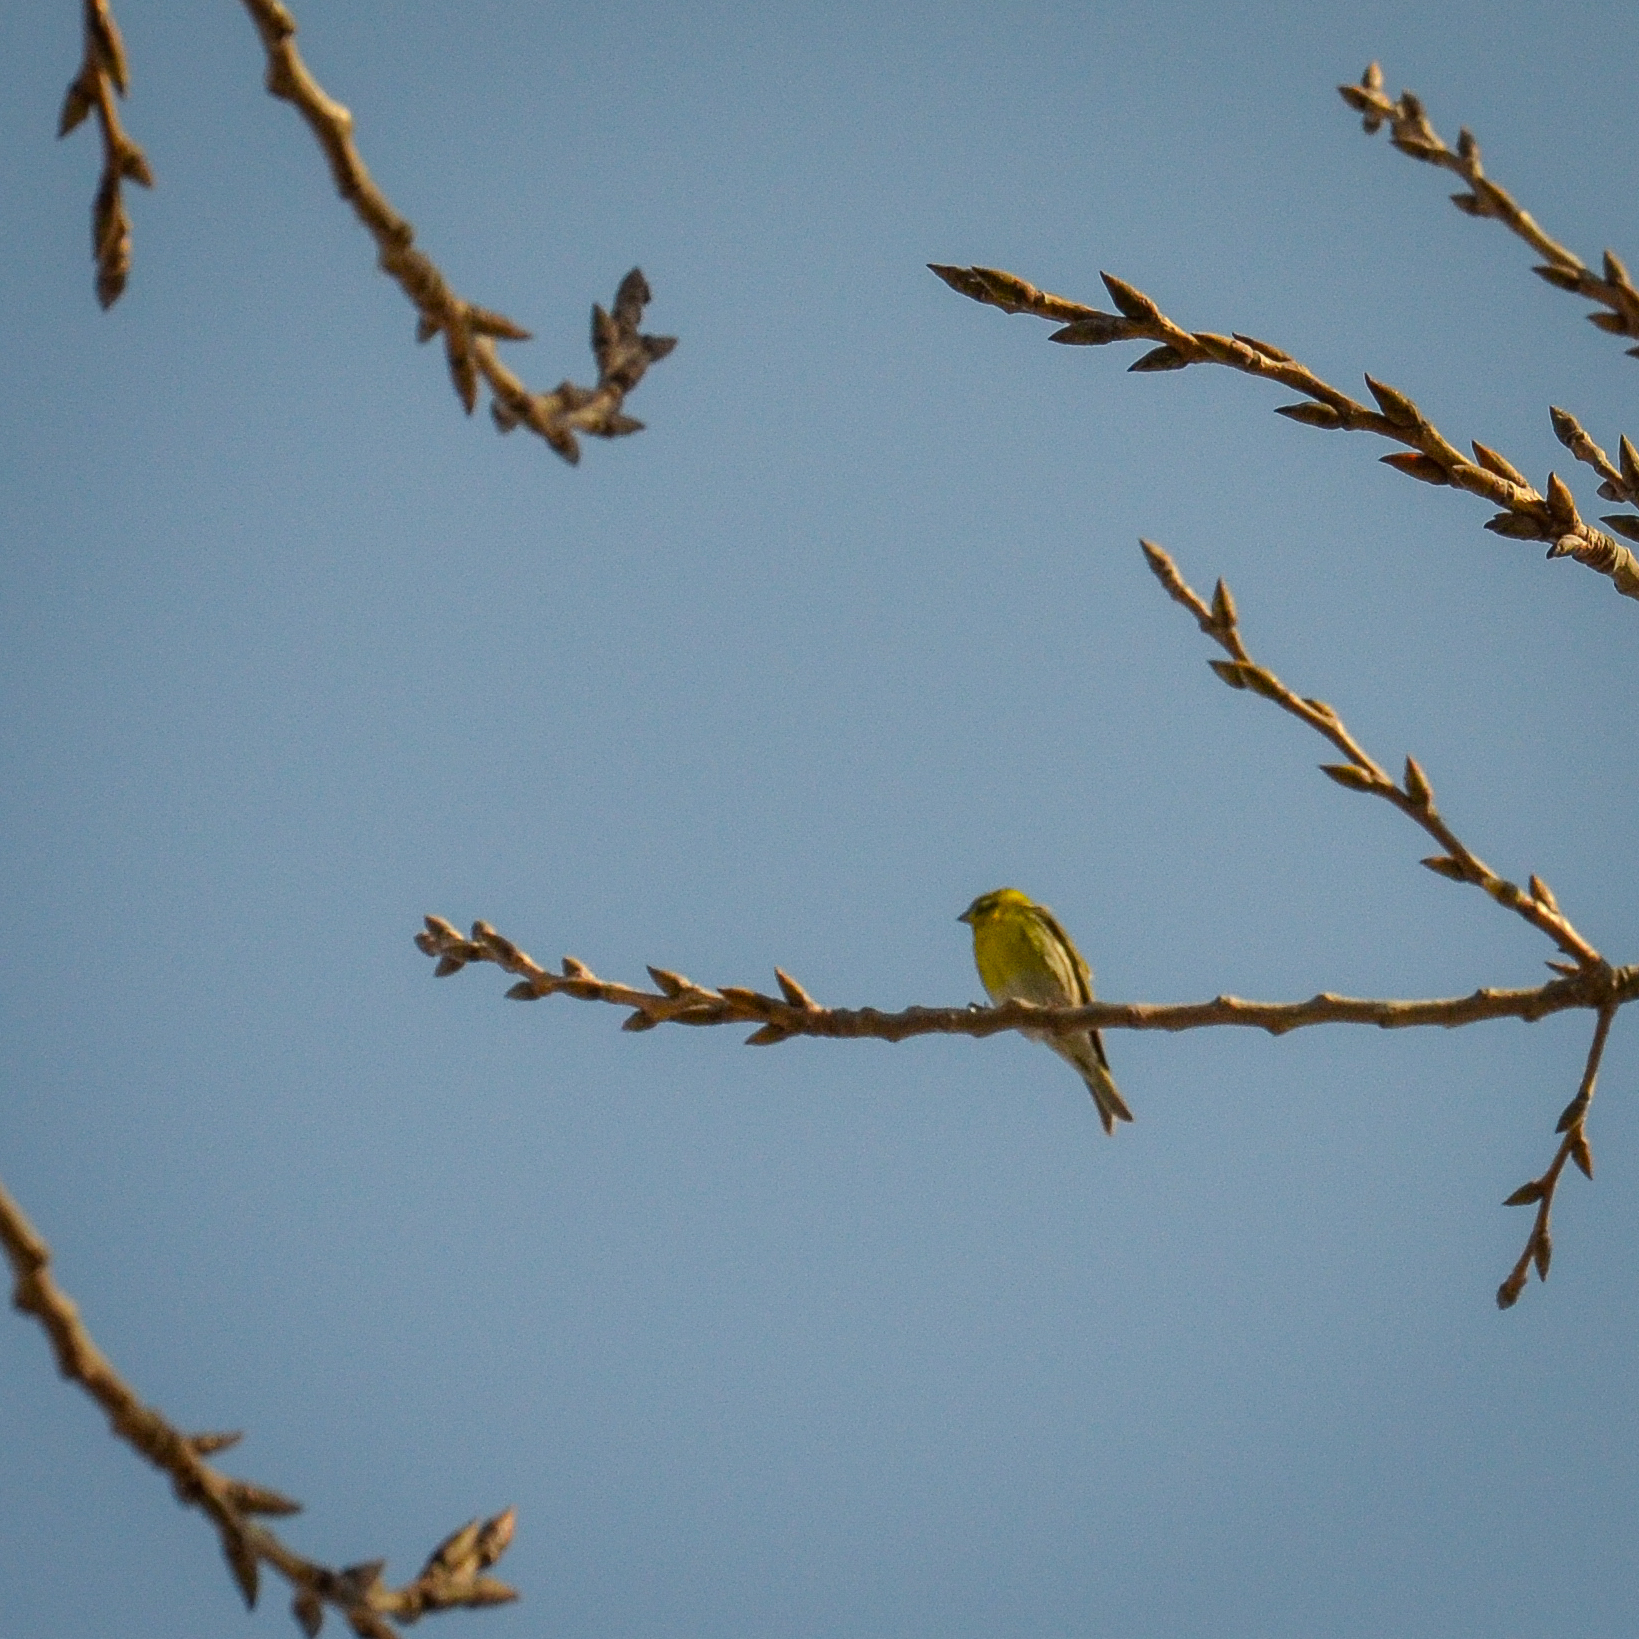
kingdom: Animalia
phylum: Chordata
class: Aves
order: Passeriformes
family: Fringillidae
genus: Serinus
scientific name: Serinus serinus
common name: European serin
